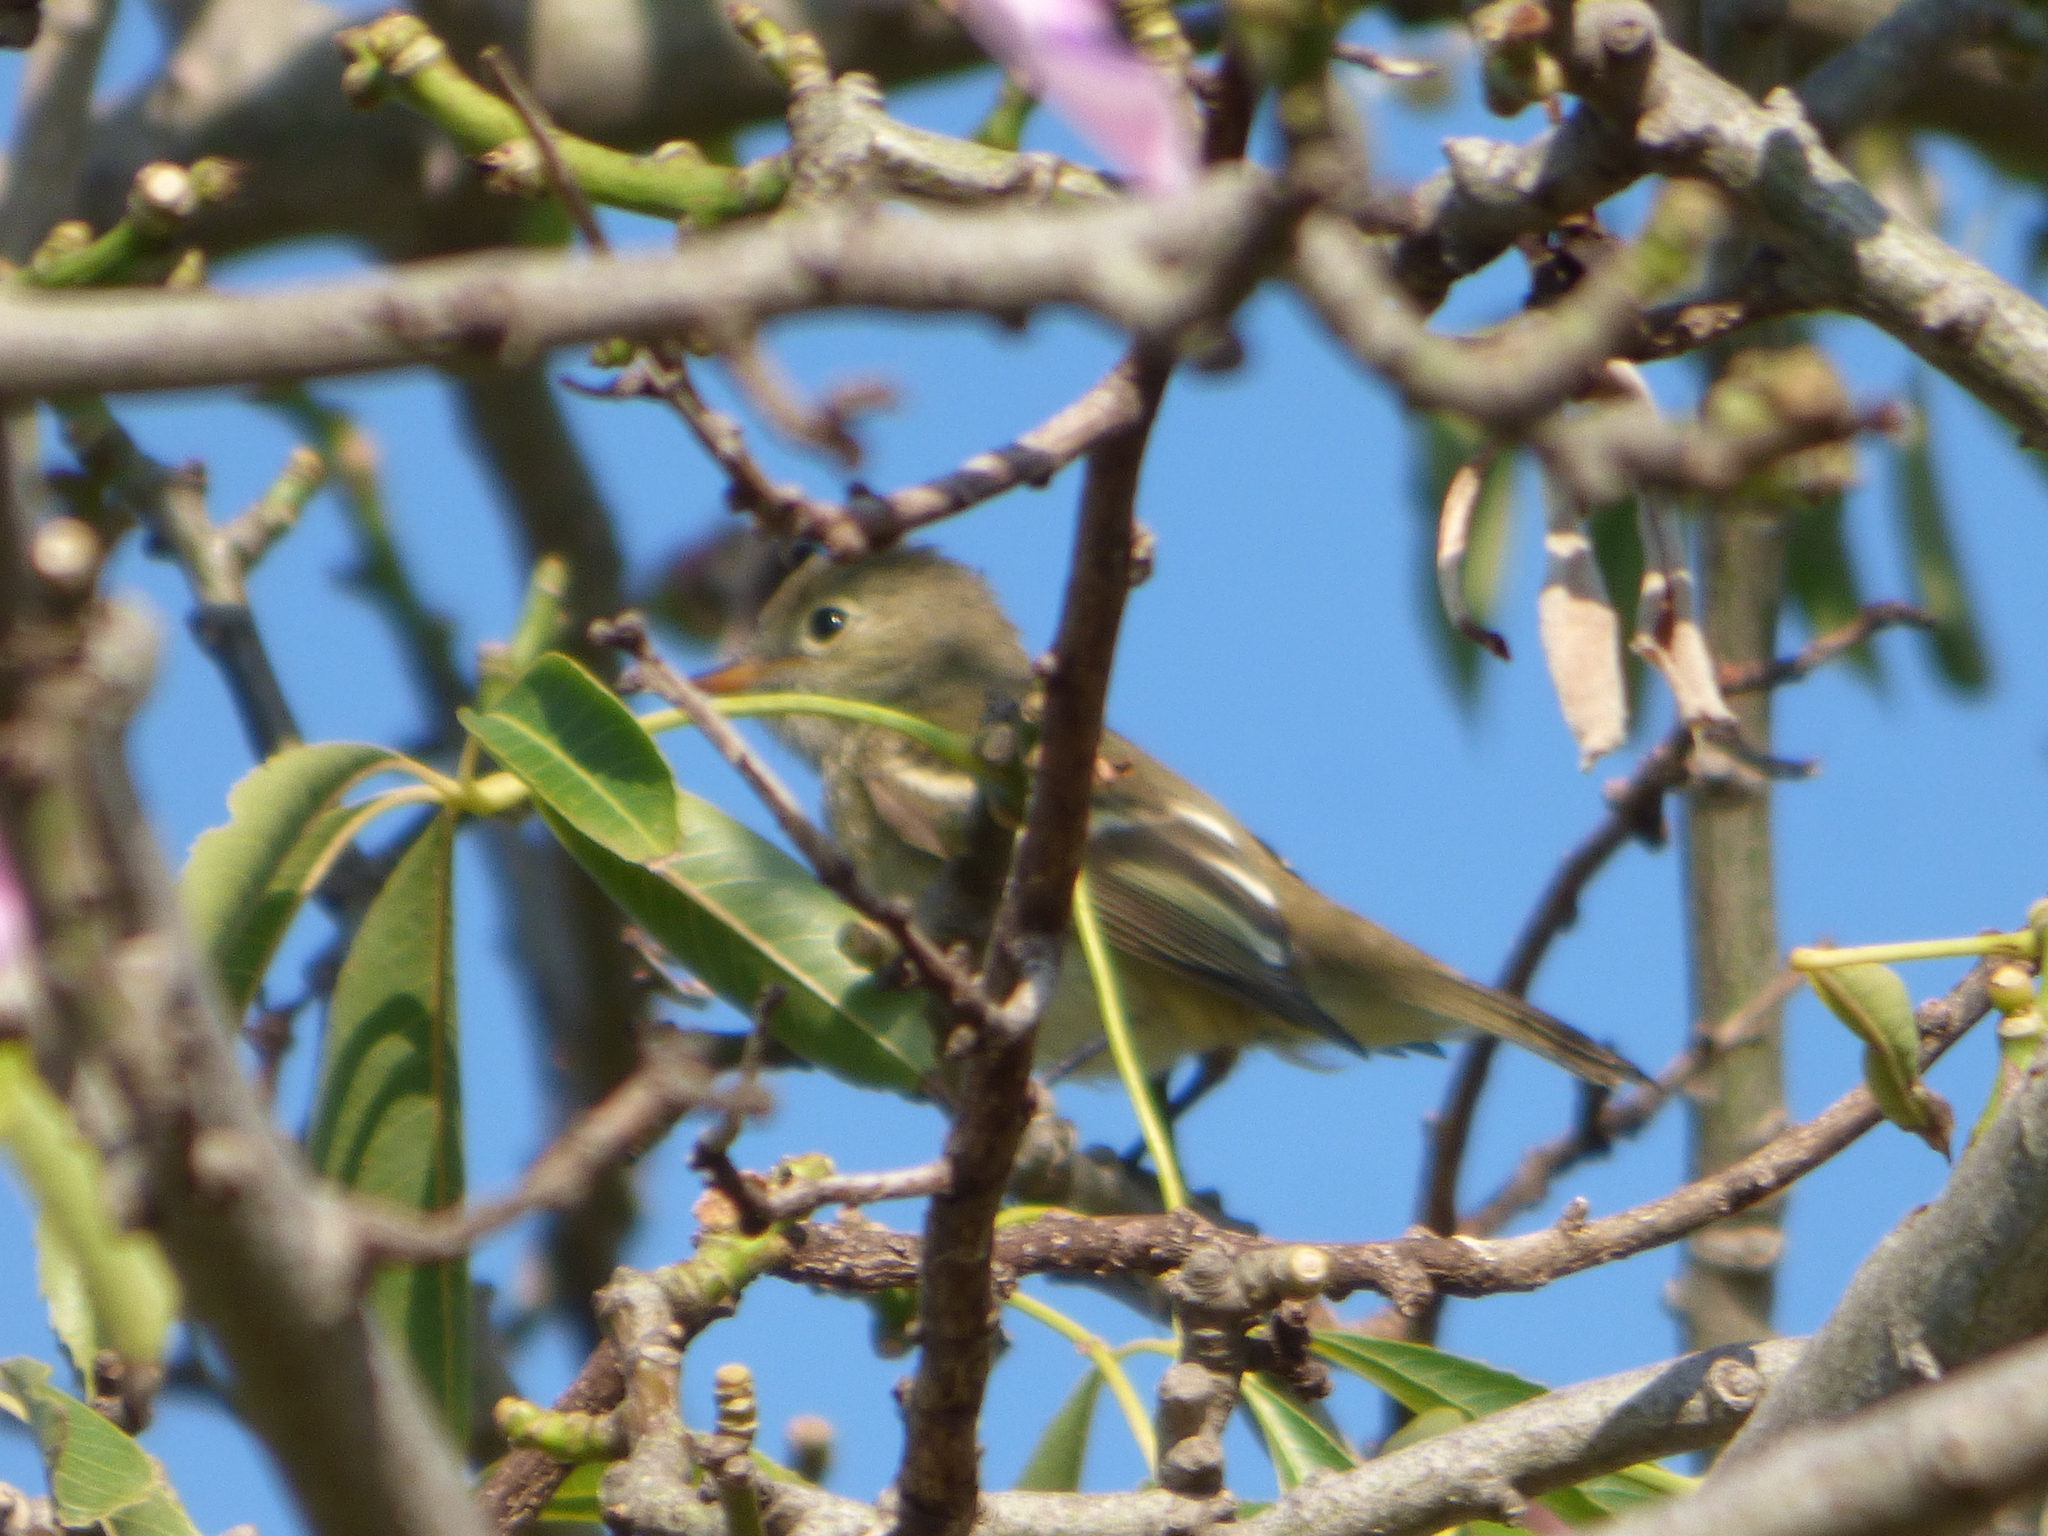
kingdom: Animalia
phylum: Chordata
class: Aves
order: Passeriformes
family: Tyrannidae
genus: Elaenia
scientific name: Elaenia albiceps
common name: White-crested elaenia
